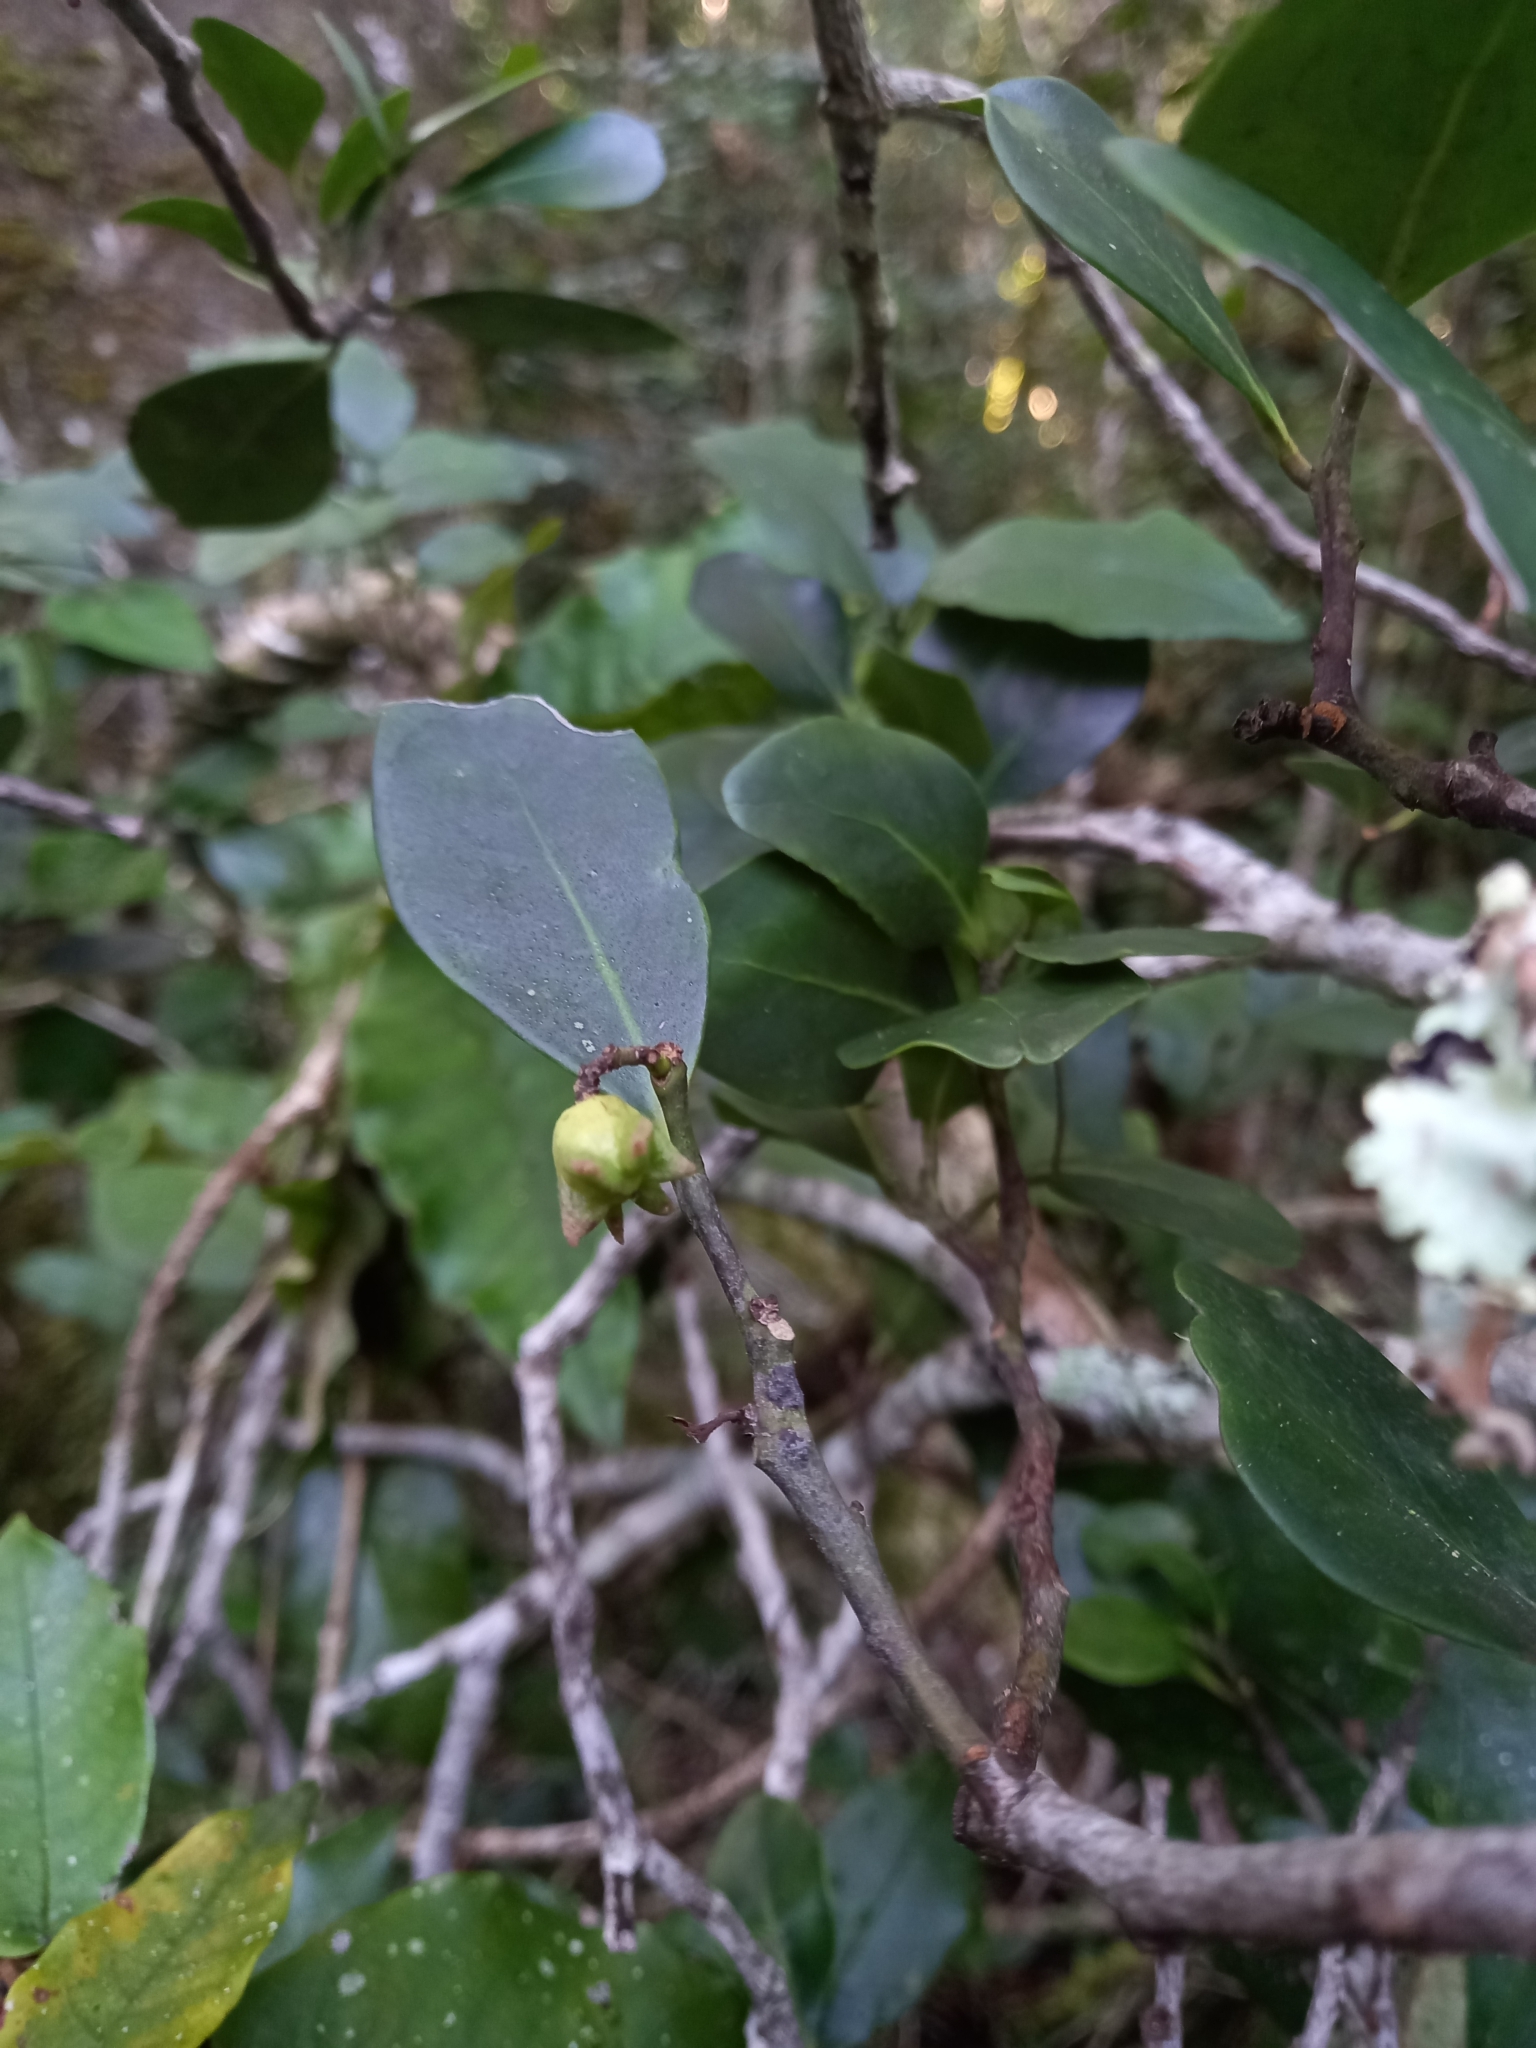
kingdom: Plantae
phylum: Tracheophyta
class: Magnoliopsida
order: Celastrales
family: Celastraceae
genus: Pterocelastrus
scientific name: Pterocelastrus tricuspidatus
